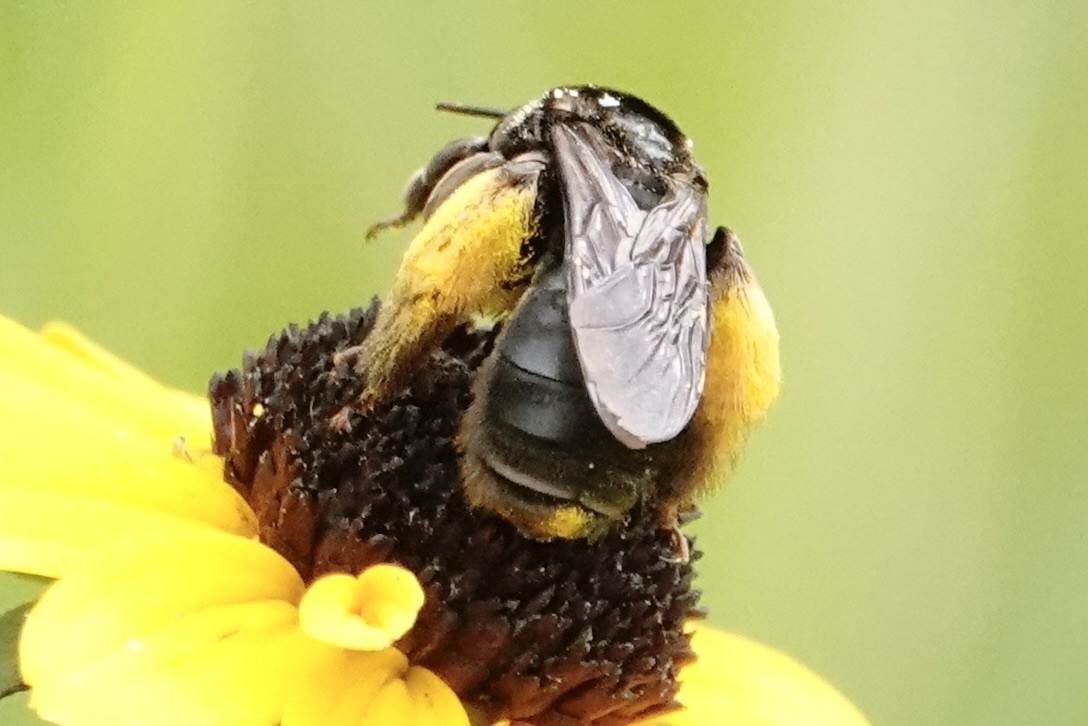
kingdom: Animalia
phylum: Arthropoda
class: Insecta
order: Hymenoptera
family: Apidae
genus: Svastra
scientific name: Svastra obliqua
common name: Oblique longhorn
